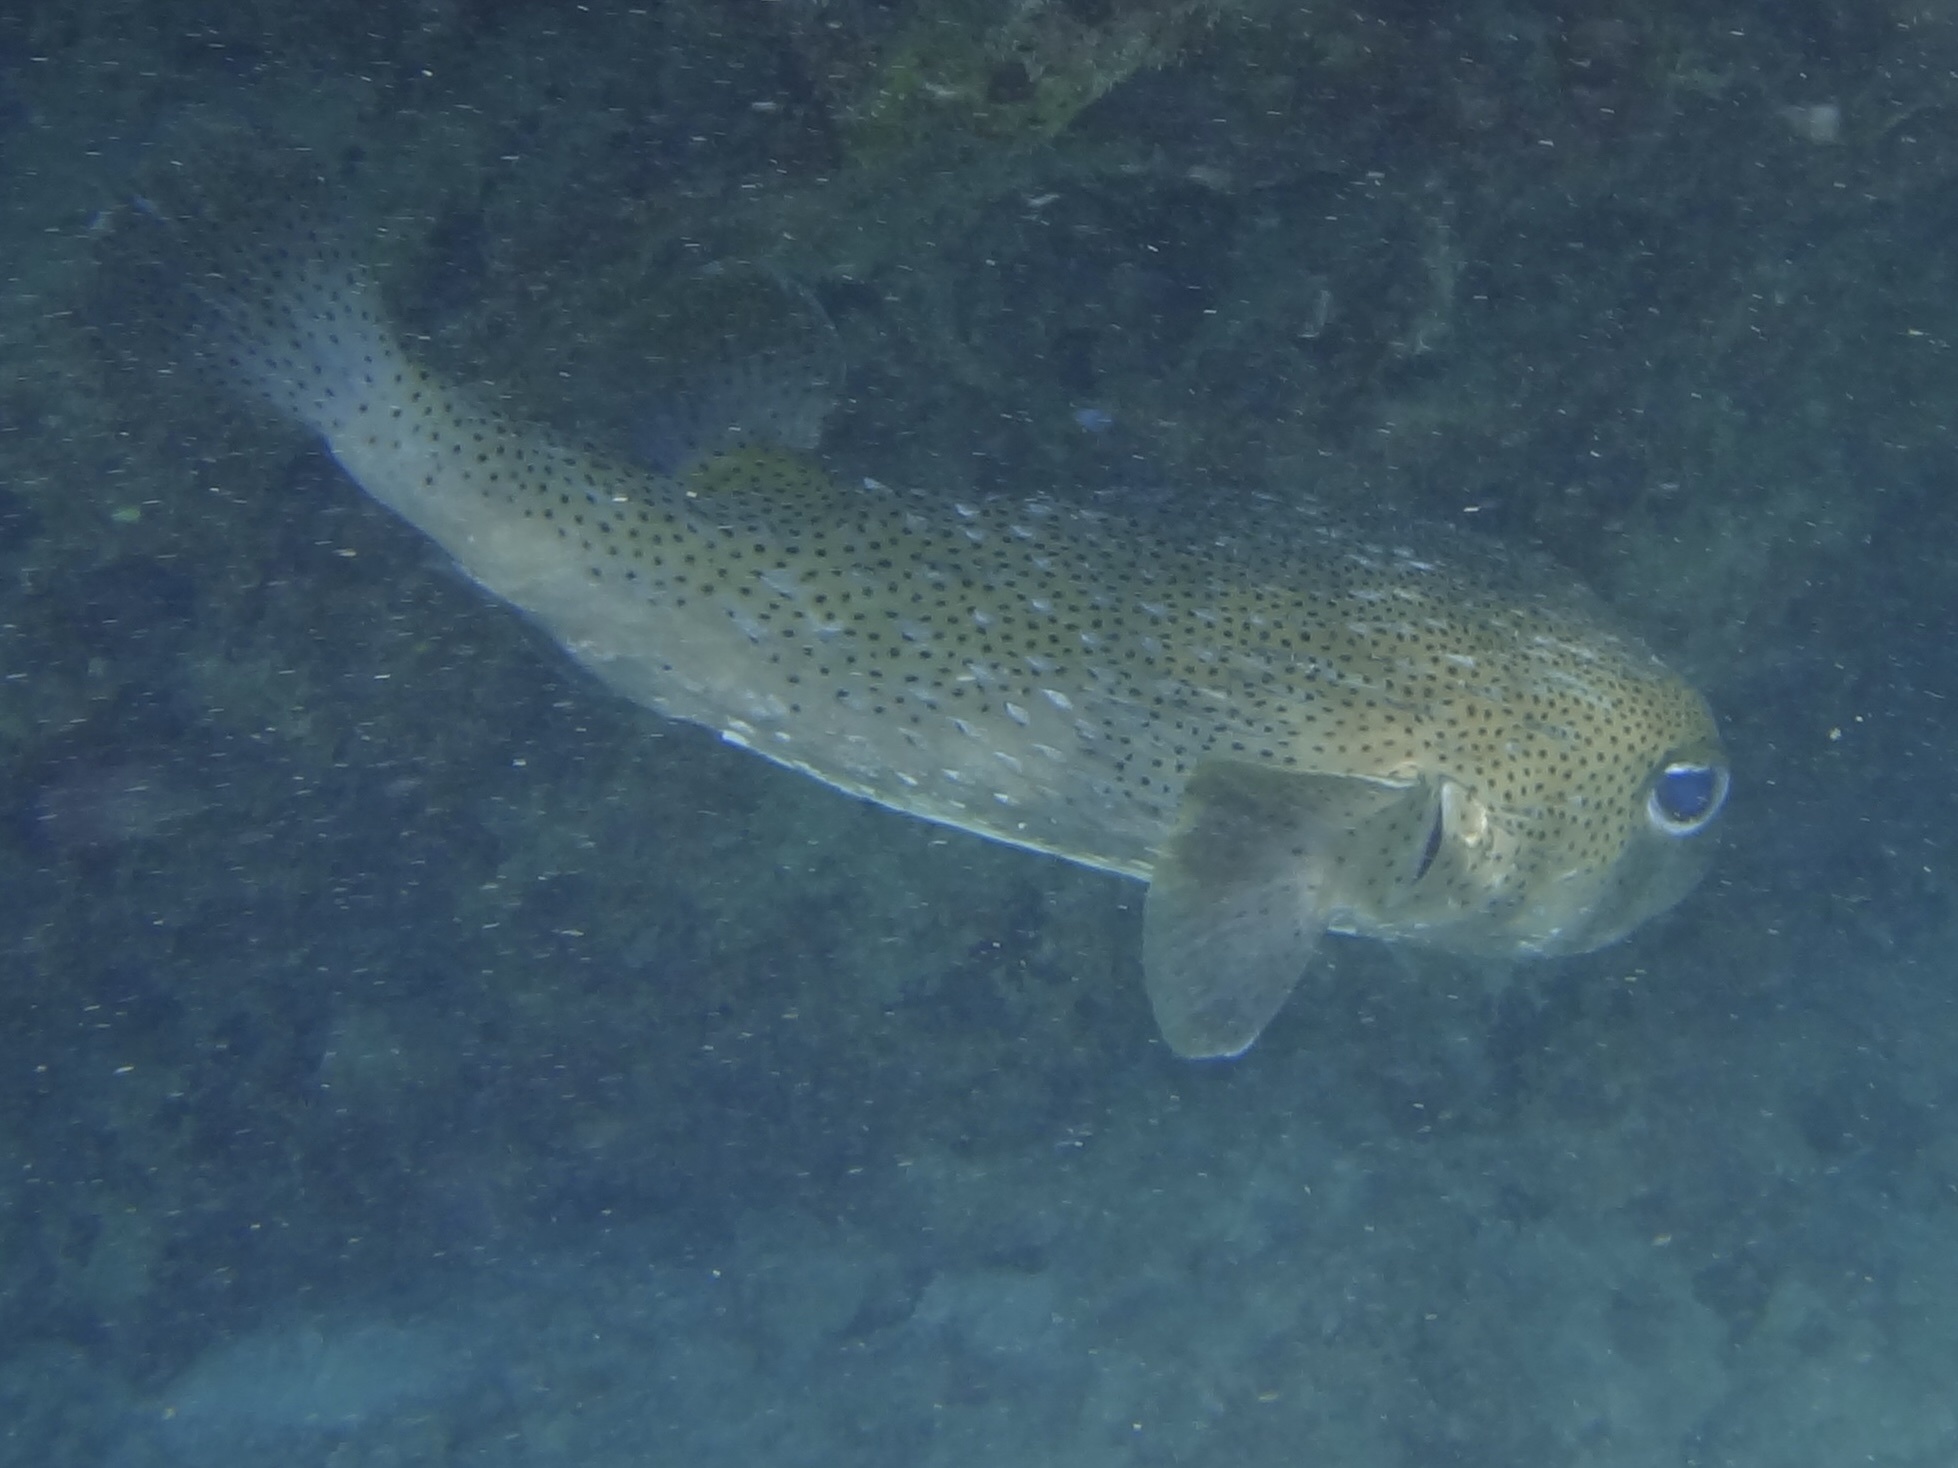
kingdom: Animalia
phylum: Chordata
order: Tetraodontiformes
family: Diodontidae
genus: Diodon
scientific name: Diodon hystrix
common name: Giant porcupinefish
